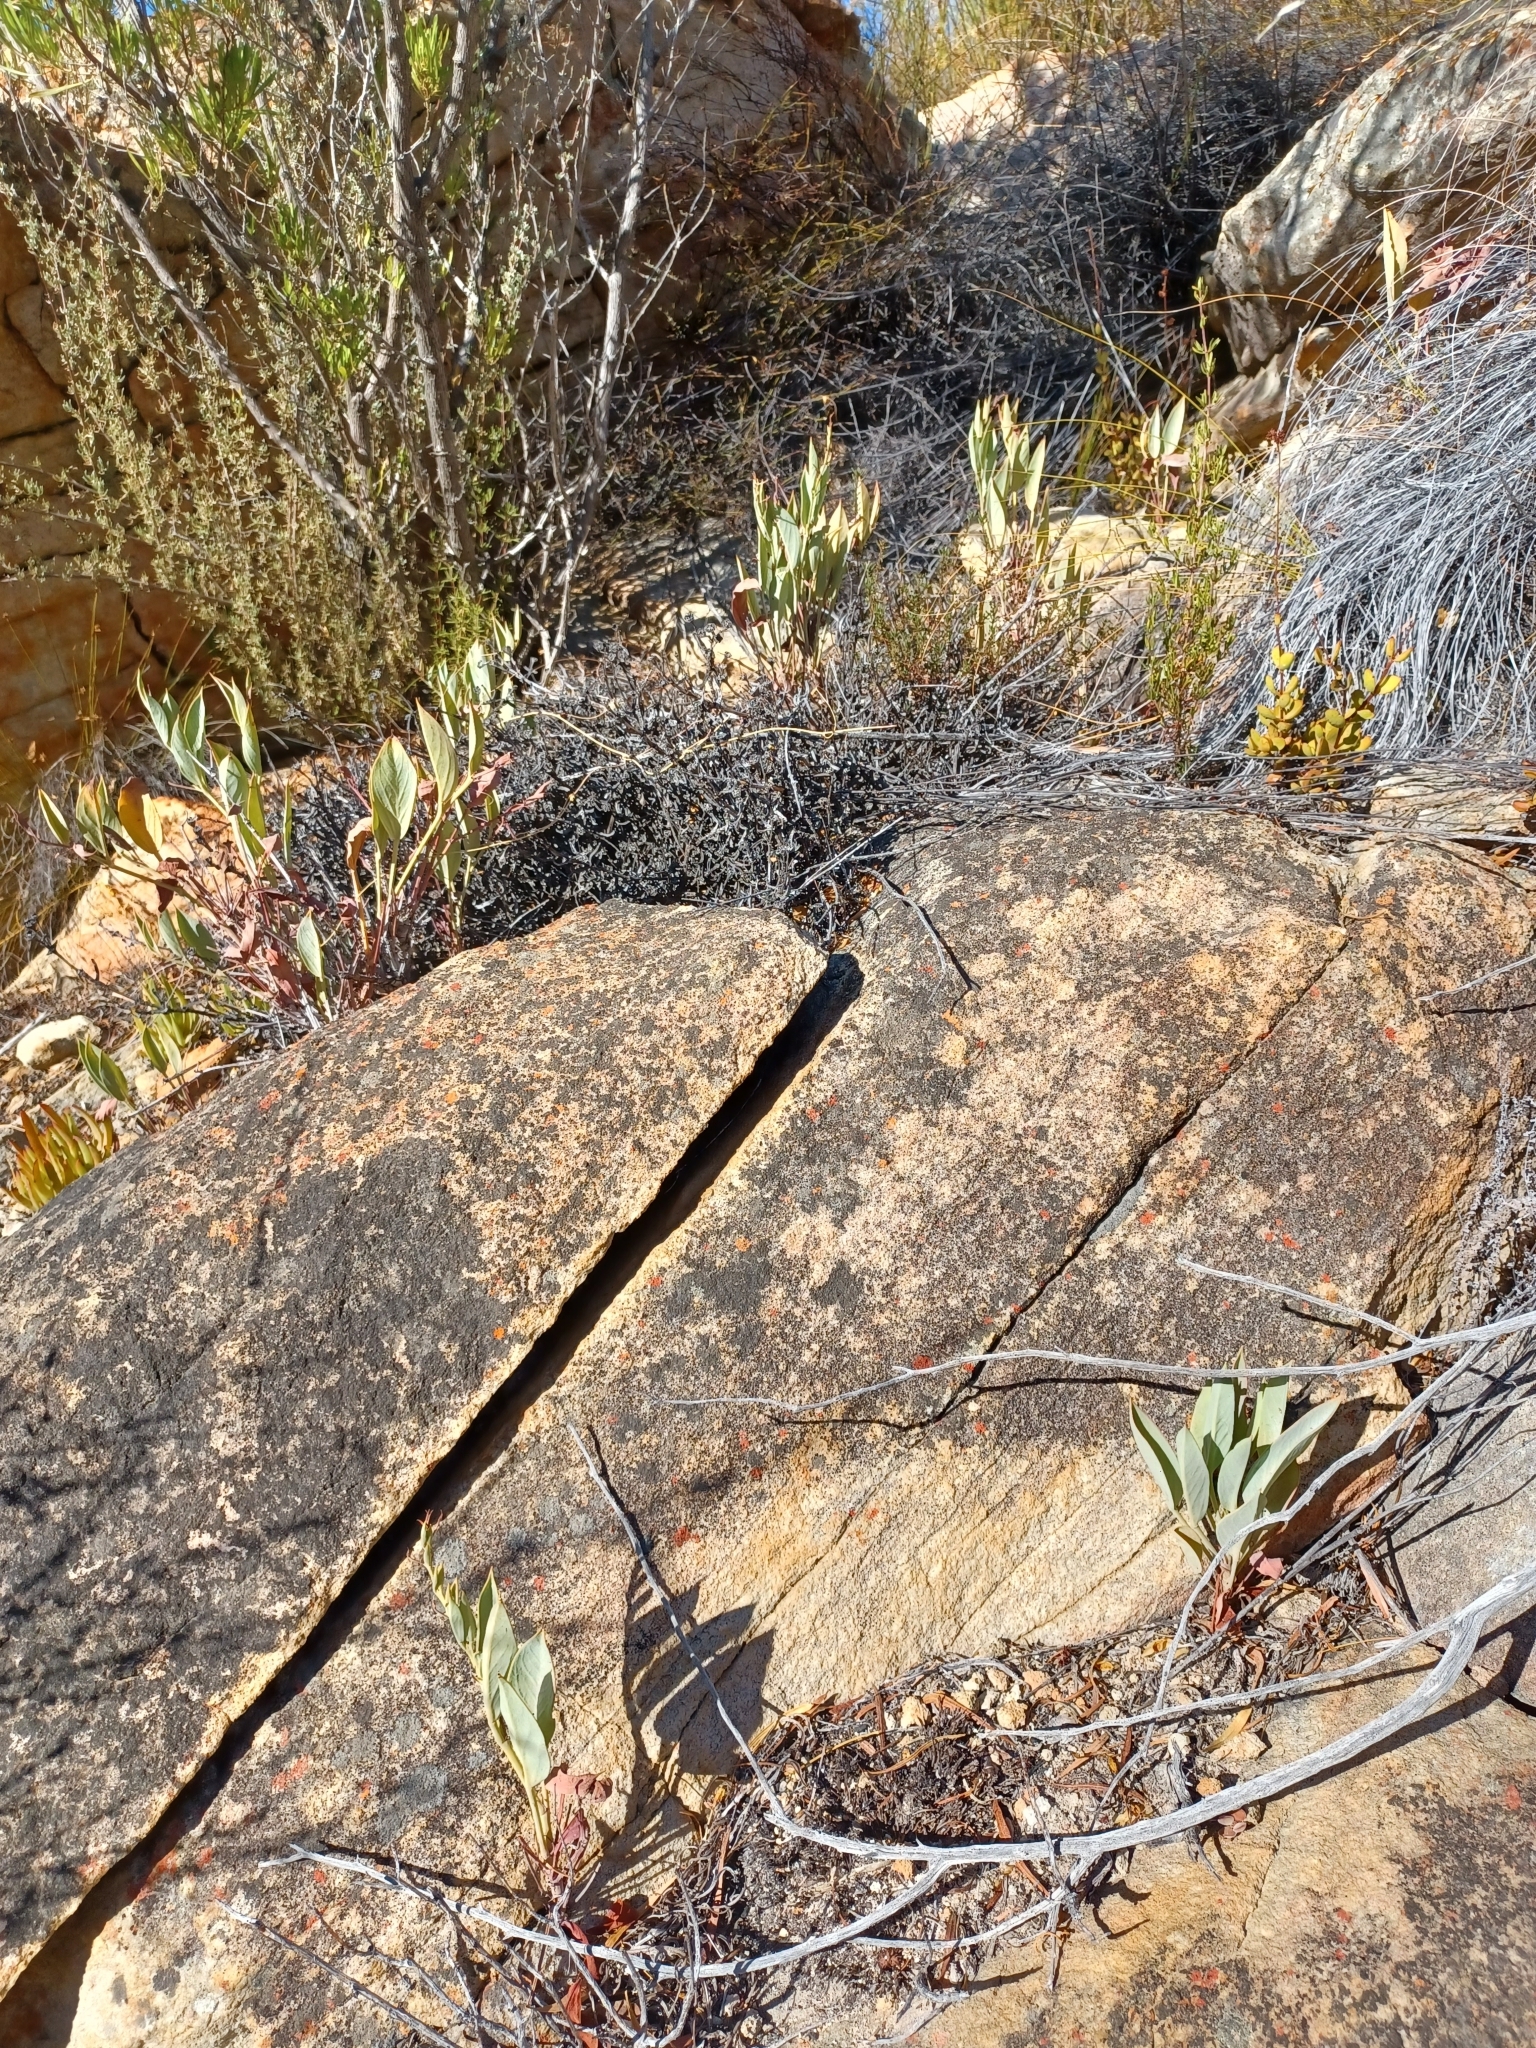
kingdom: Plantae
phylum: Tracheophyta
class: Magnoliopsida
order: Geraniales
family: Geraniaceae
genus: Pelargonium
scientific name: Pelargonium lanceolatum
